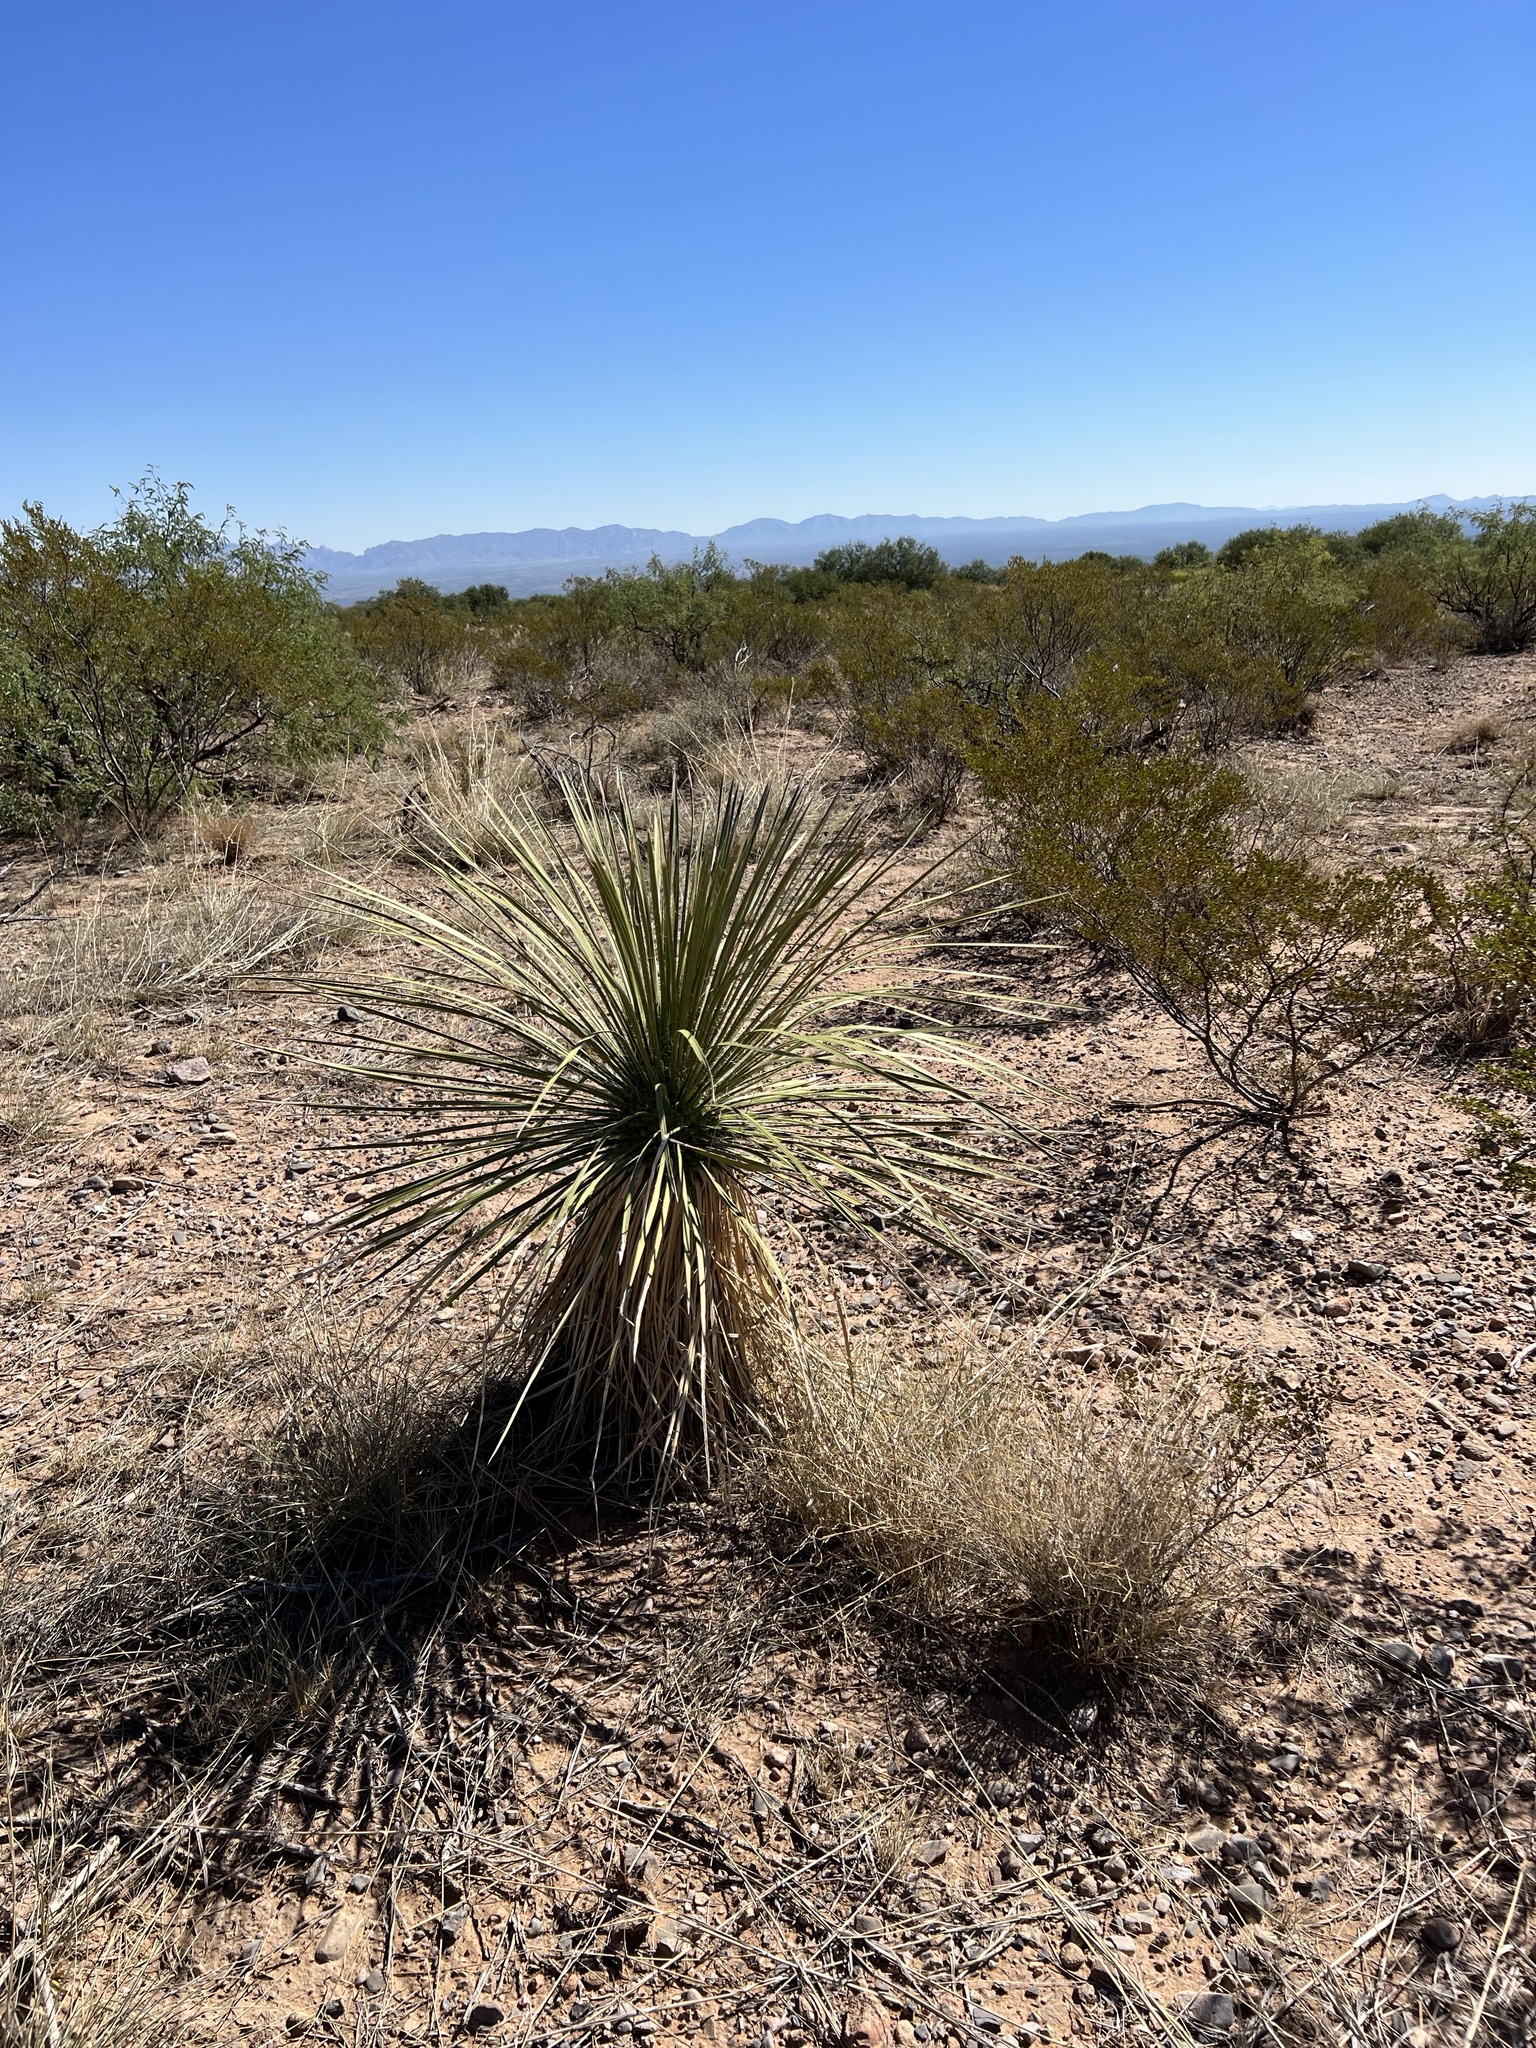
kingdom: Plantae
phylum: Tracheophyta
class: Liliopsida
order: Asparagales
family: Asparagaceae
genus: Yucca
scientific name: Yucca elata
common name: Palmella
